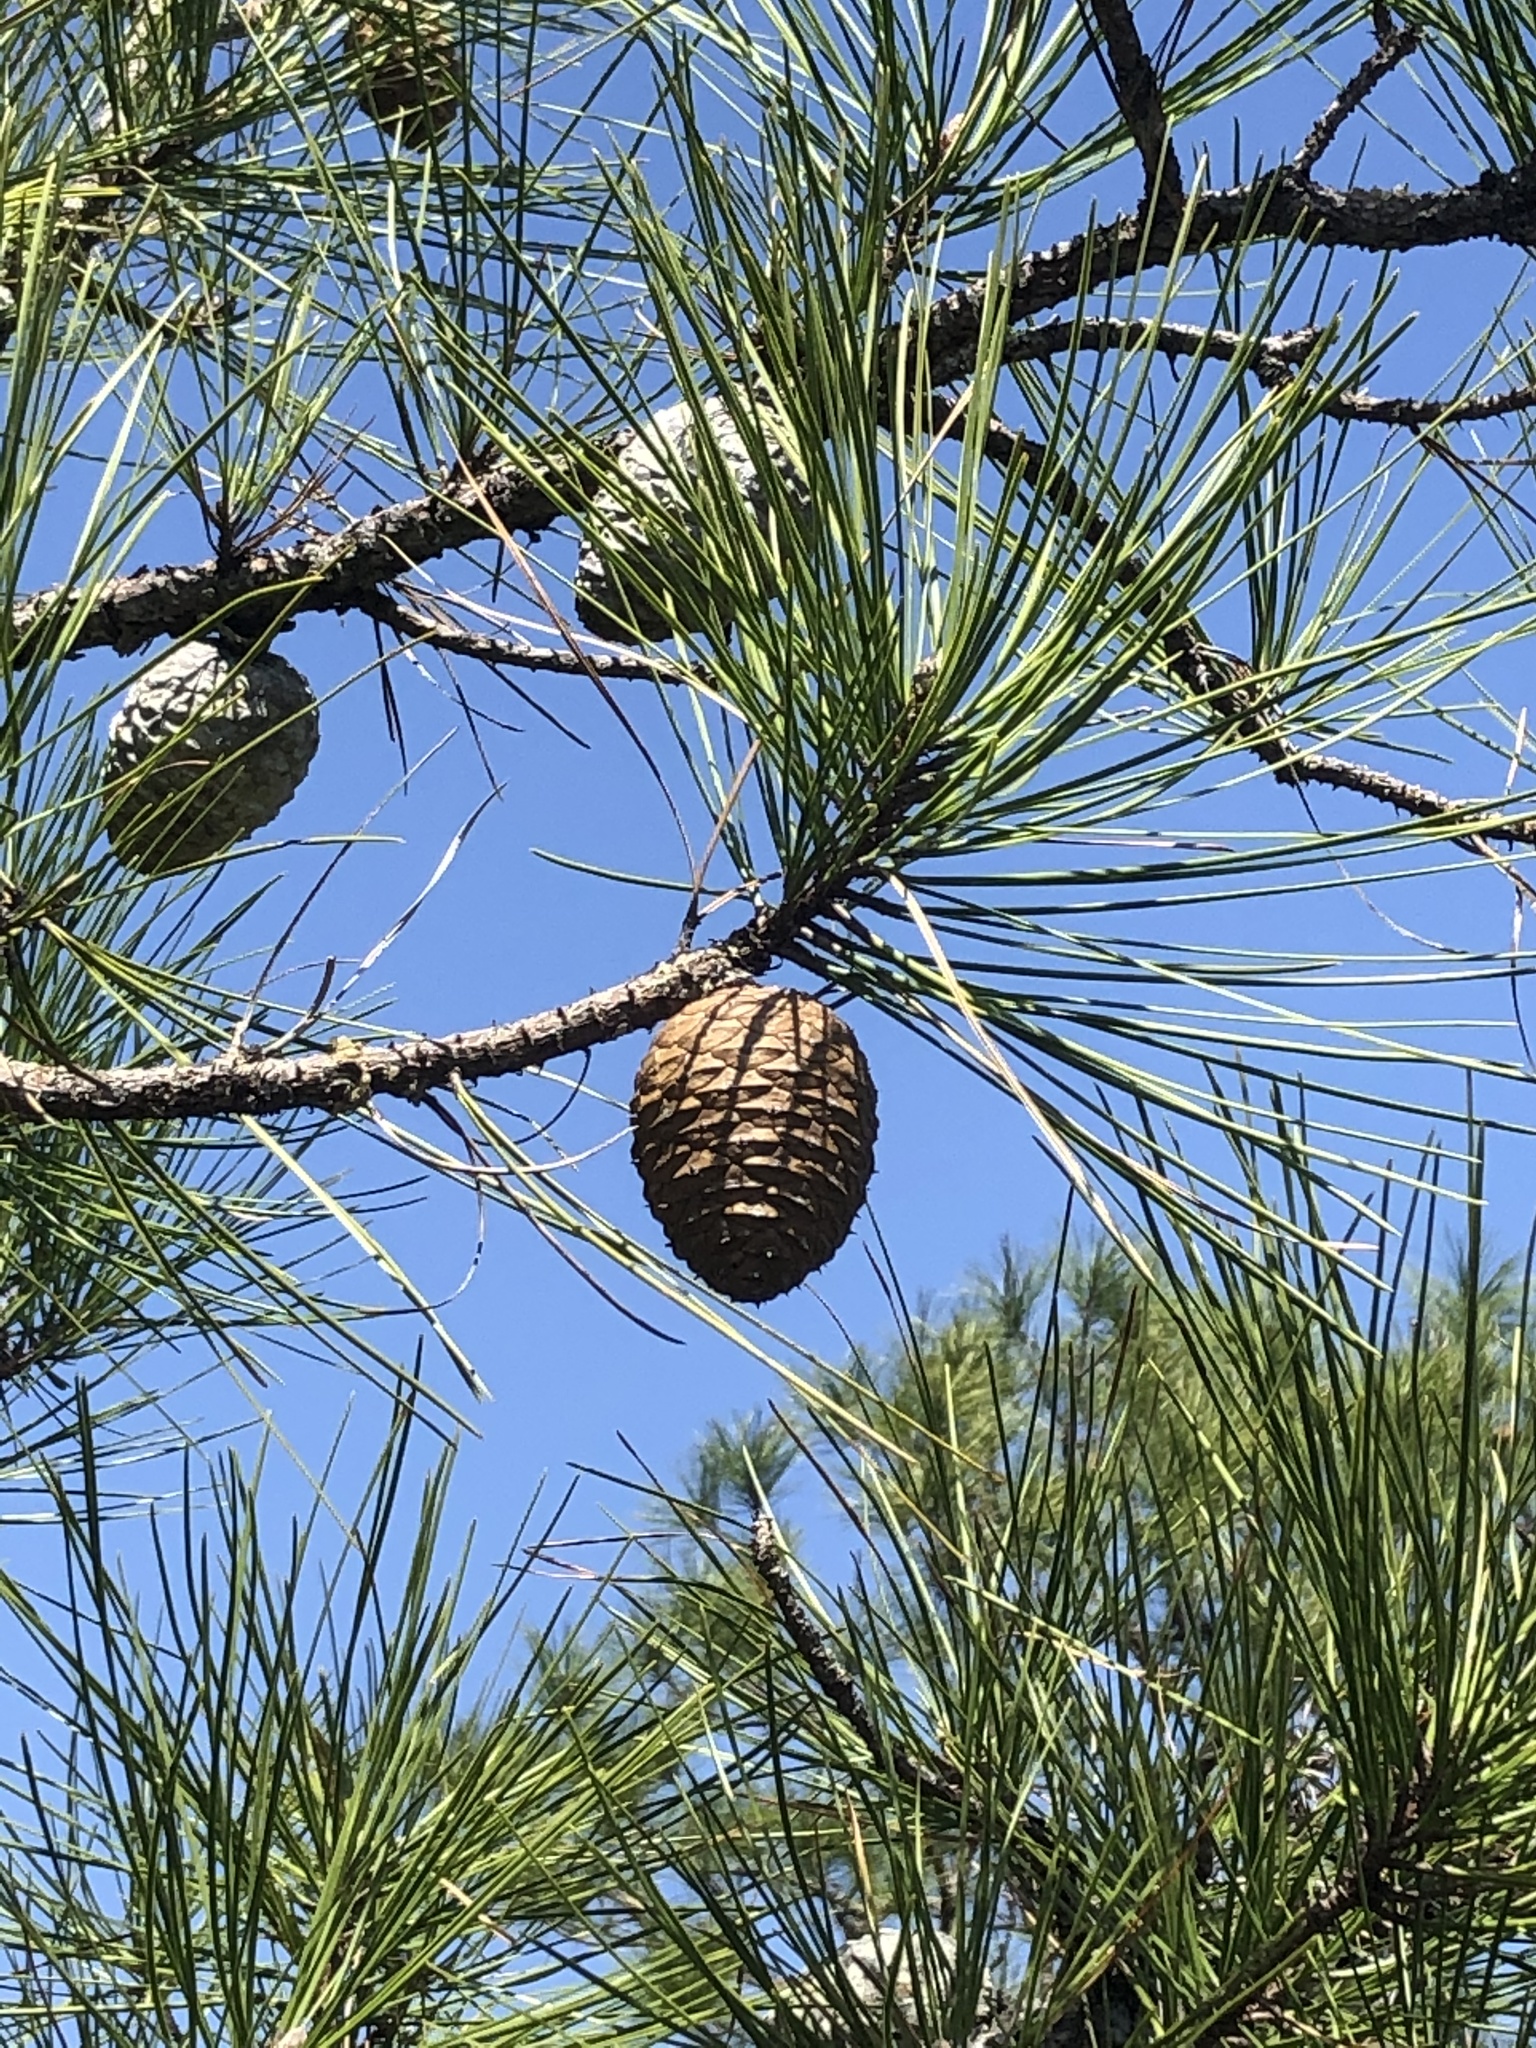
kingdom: Plantae
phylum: Tracheophyta
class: Pinopsida
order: Pinales
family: Pinaceae
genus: Pinus
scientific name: Pinus serotina
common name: Marsh pine
